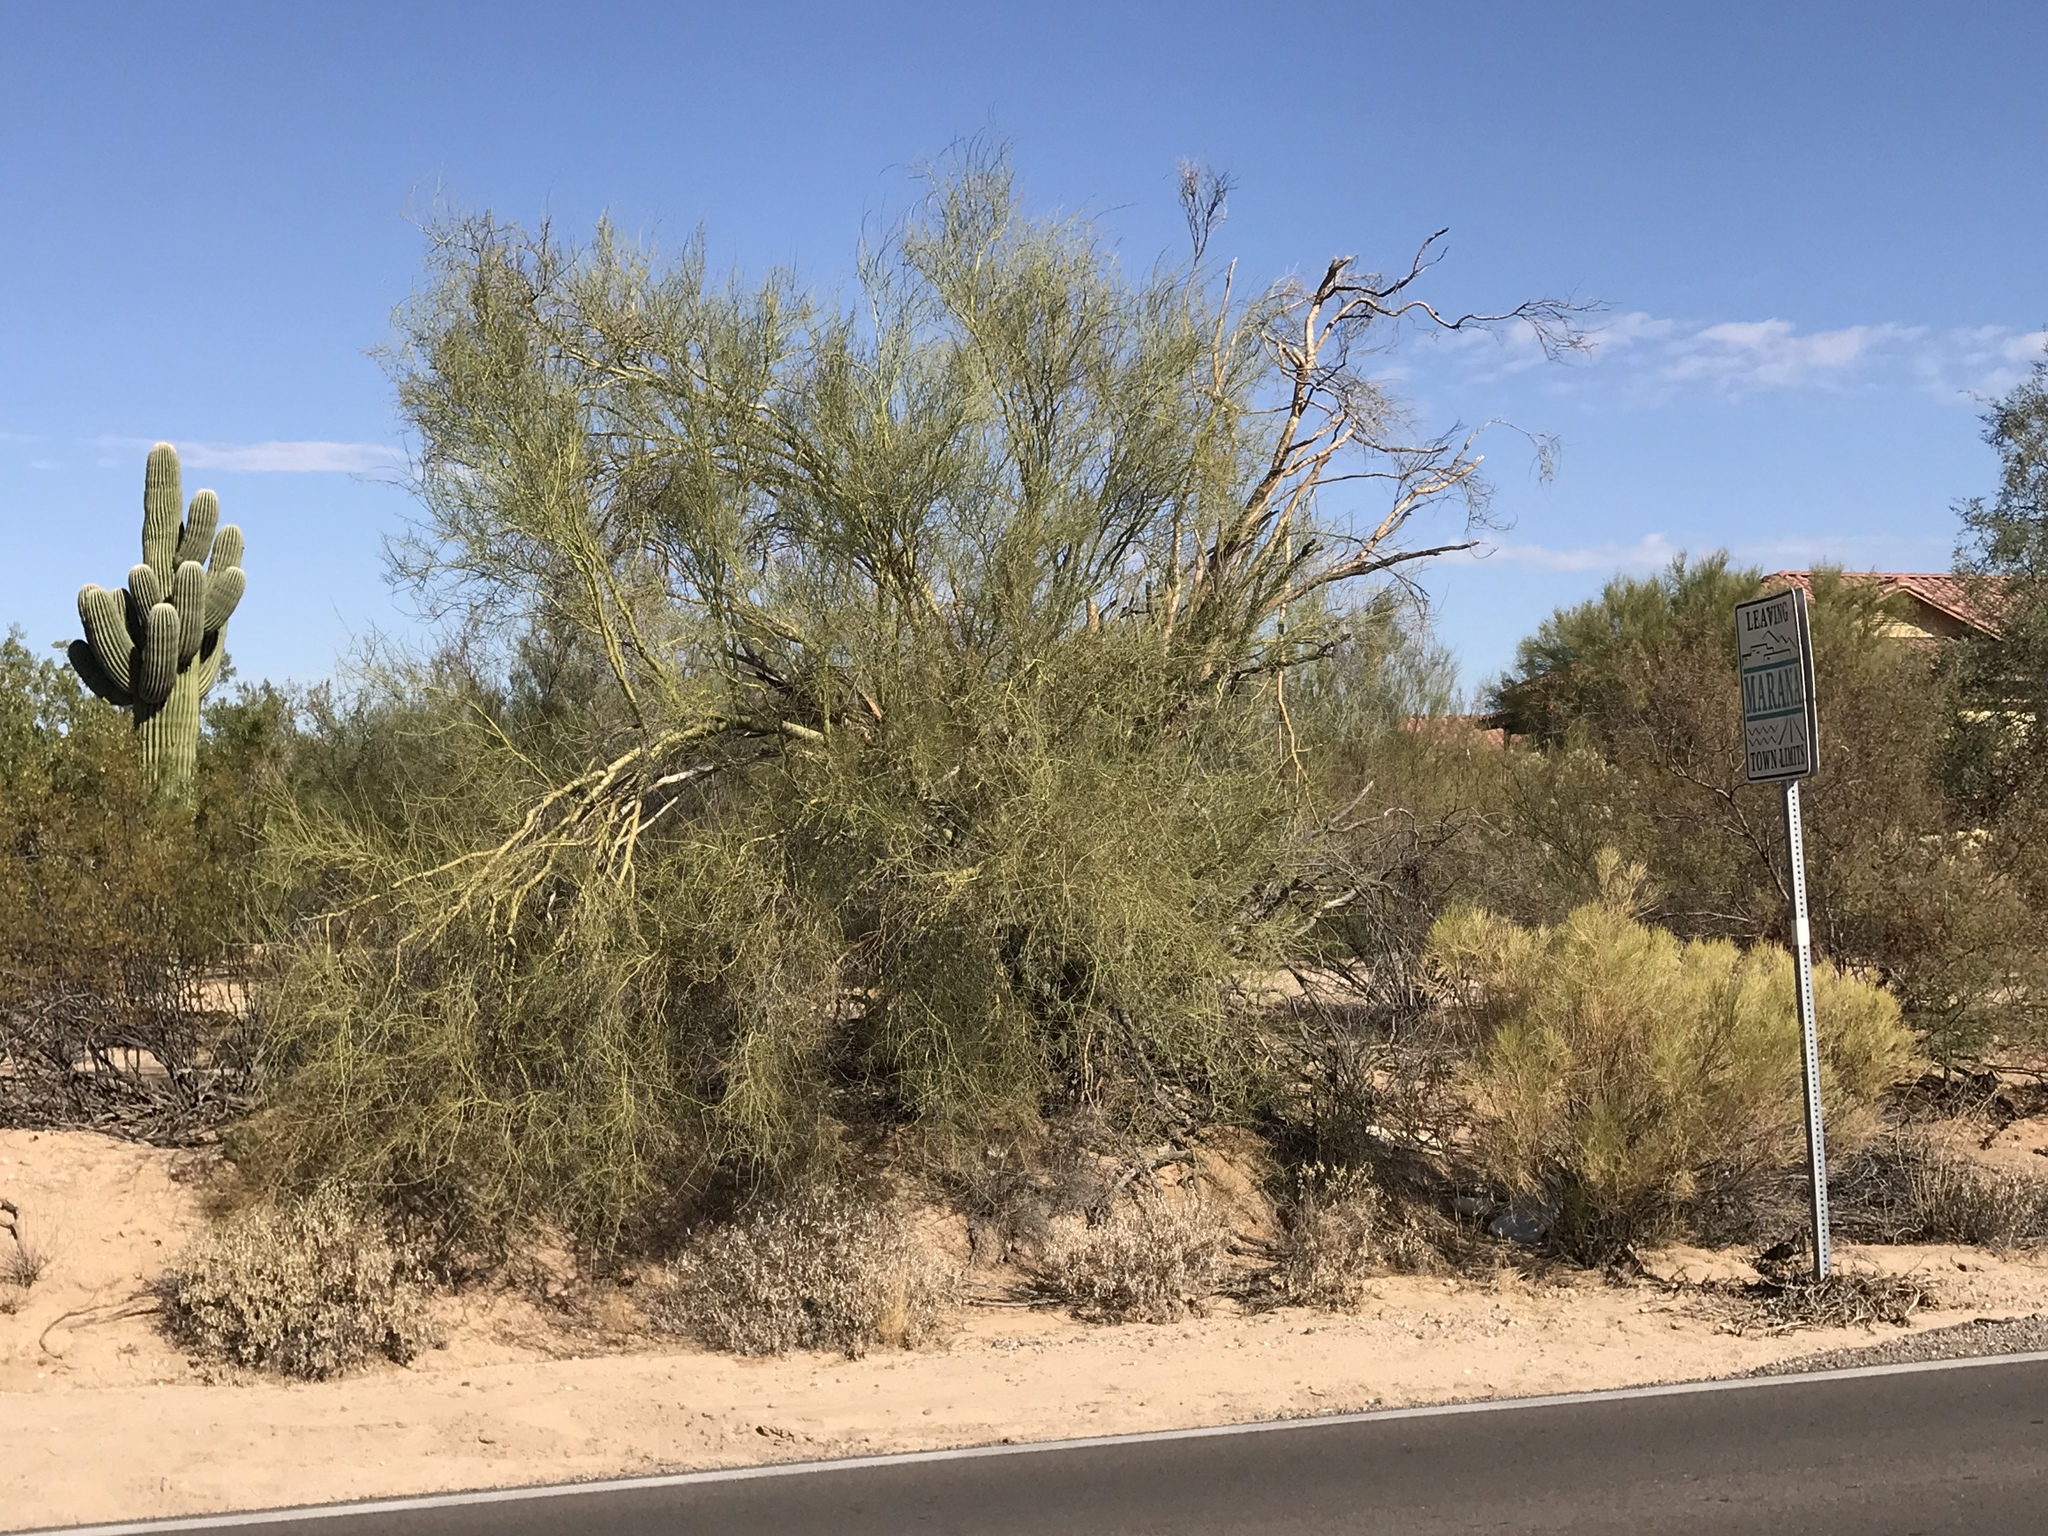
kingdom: Plantae
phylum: Tracheophyta
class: Magnoliopsida
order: Fabales
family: Fabaceae
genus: Parkinsonia
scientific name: Parkinsonia microphylla
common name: Yellow paloverde
